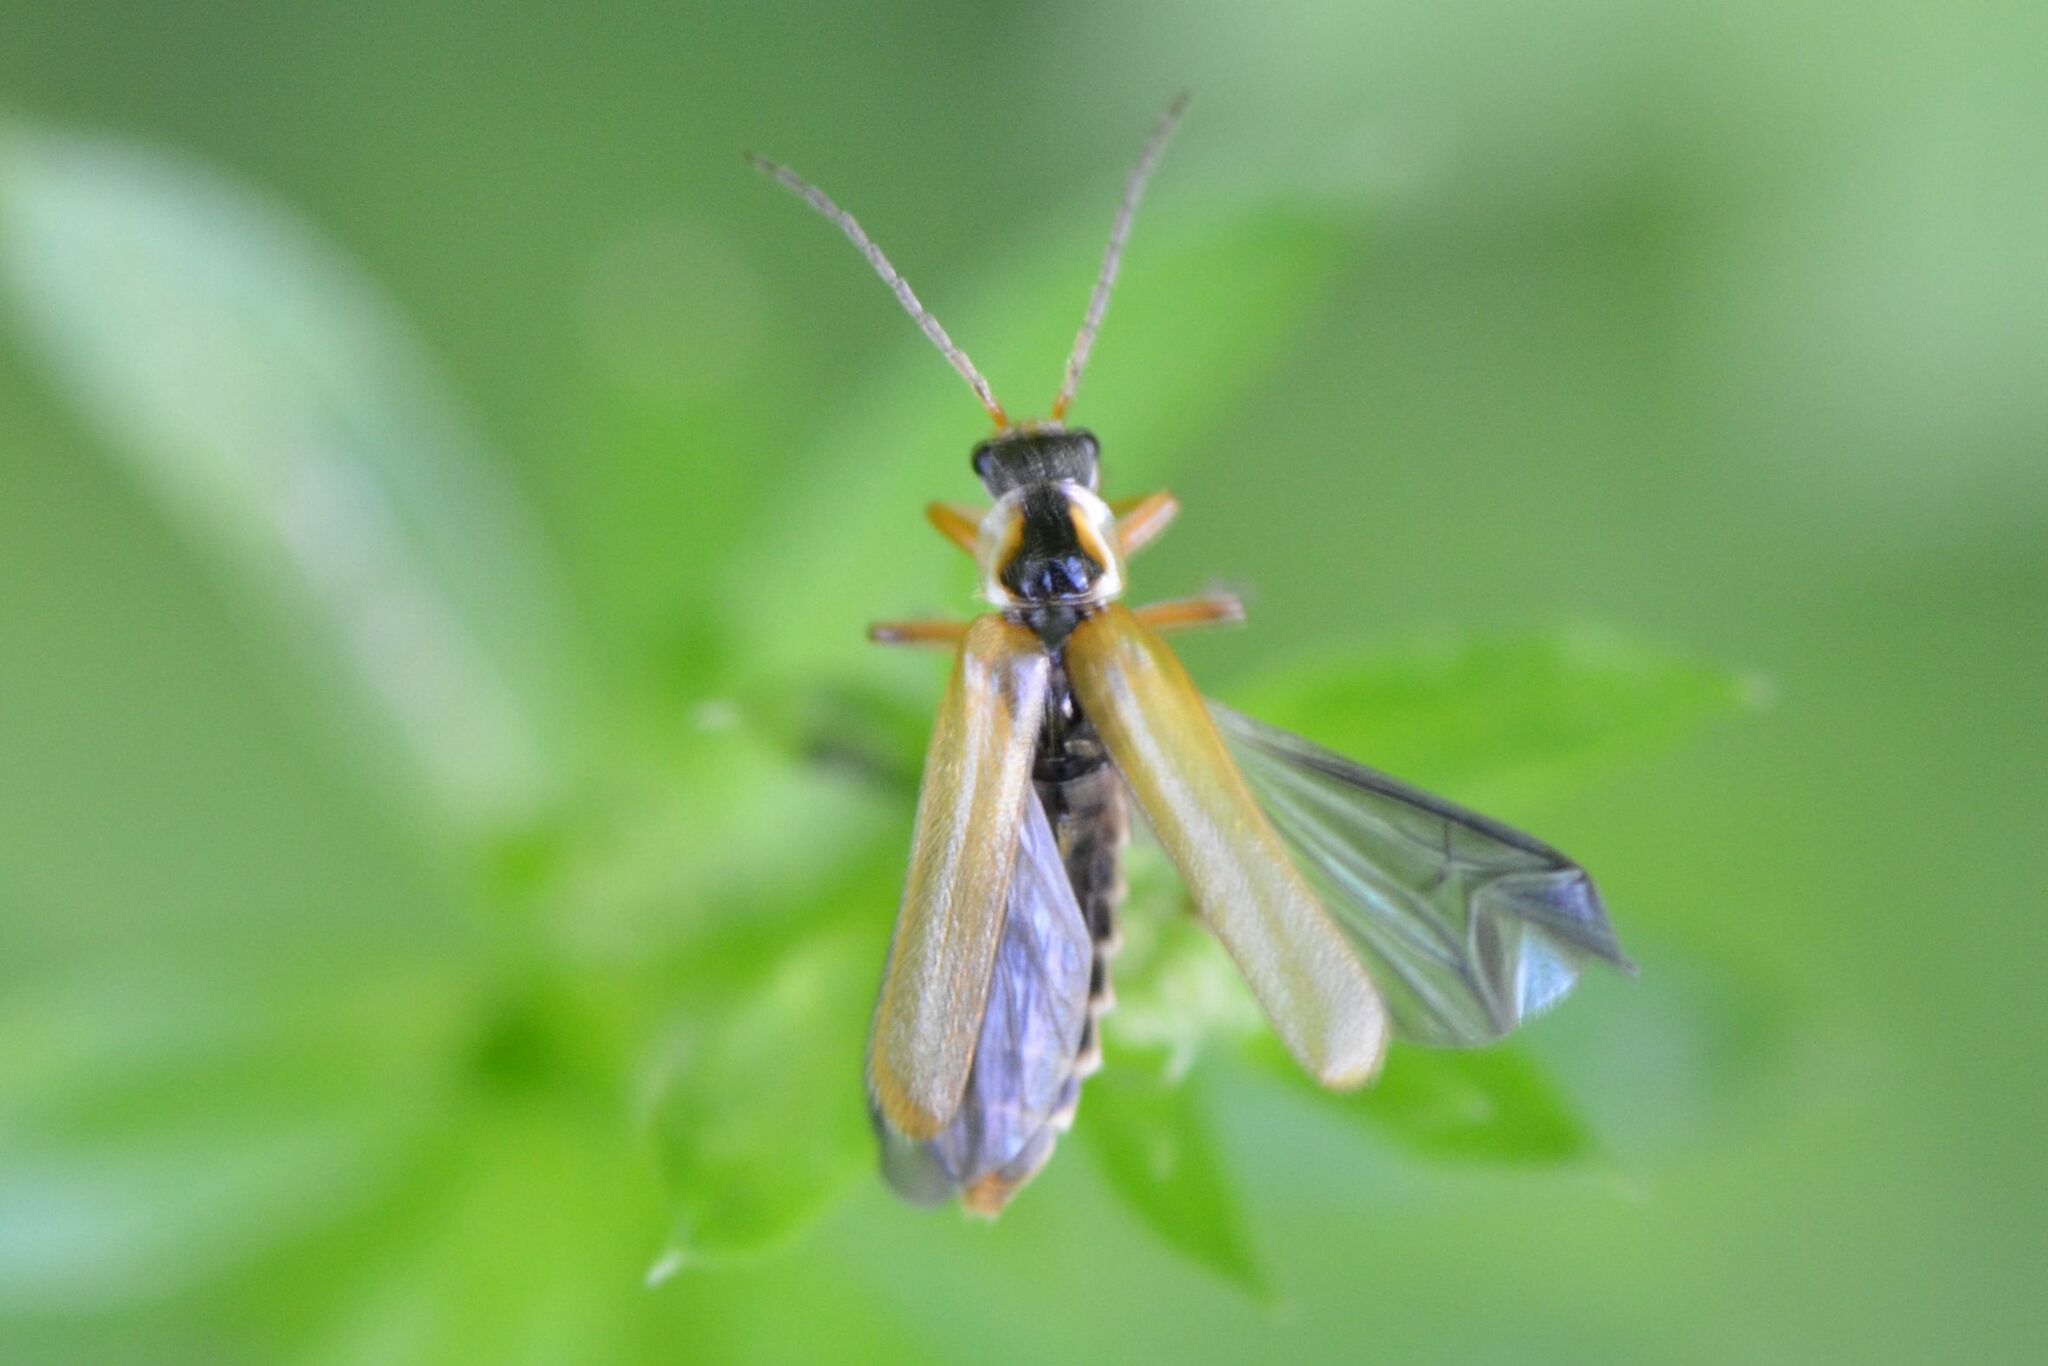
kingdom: Animalia
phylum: Arthropoda
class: Insecta
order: Coleoptera
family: Cantharidae
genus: Cantharis
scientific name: Cantharis decipiens
